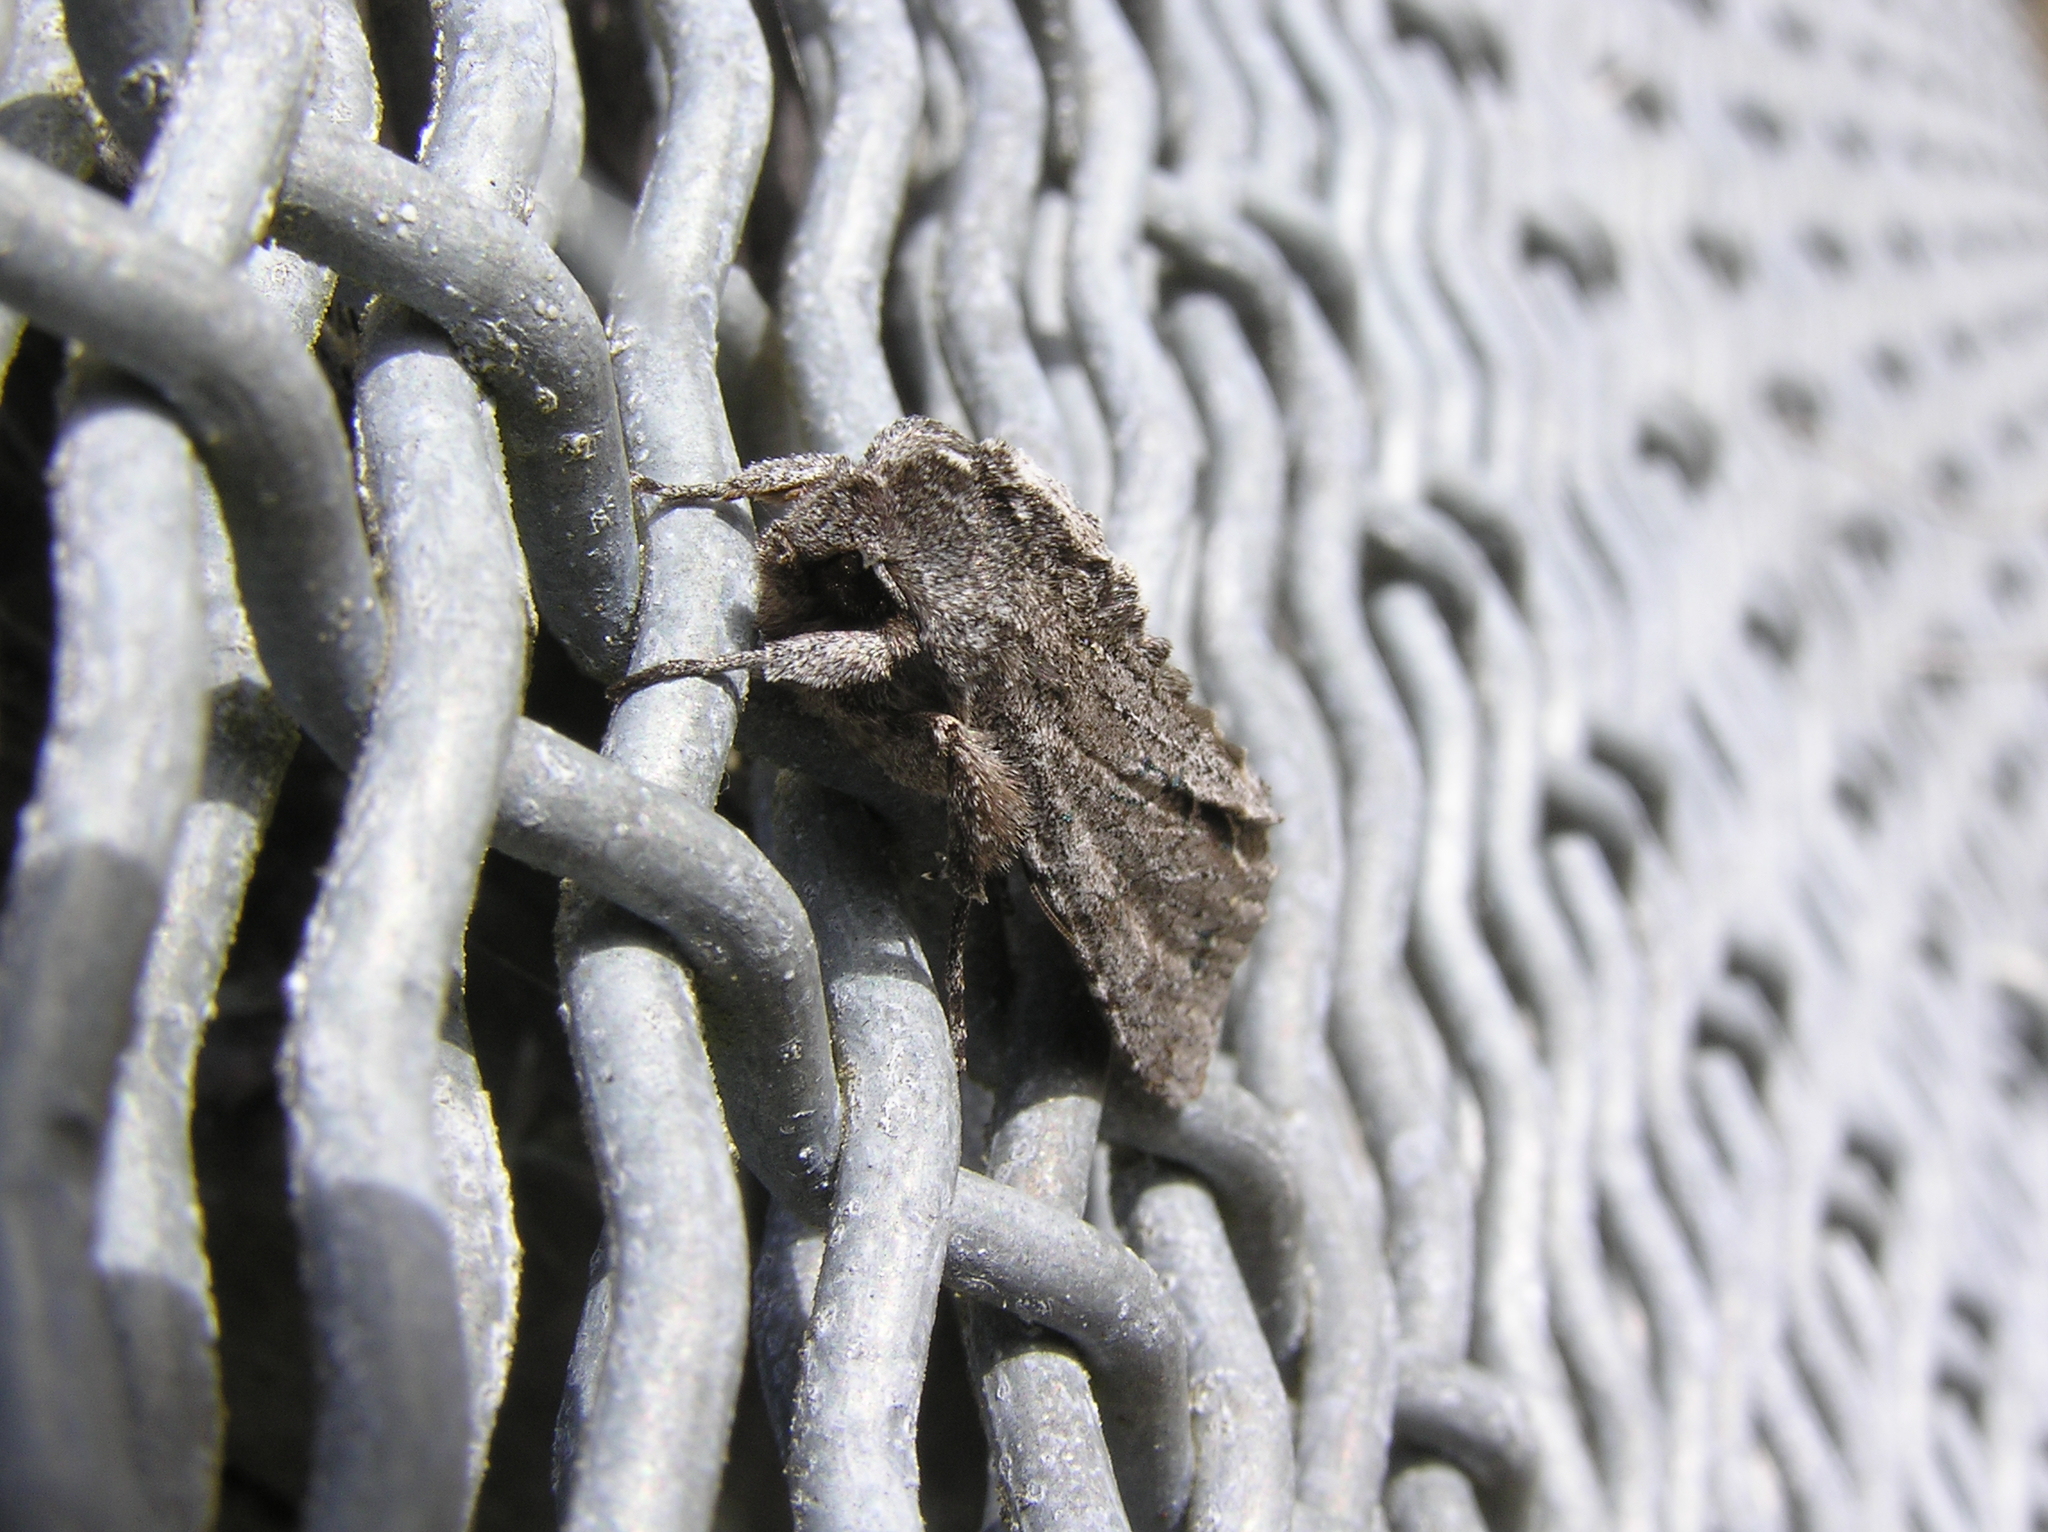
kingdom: Animalia
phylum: Arthropoda
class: Insecta
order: Lepidoptera
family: Noctuidae
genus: Ichneutica
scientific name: Ichneutica
